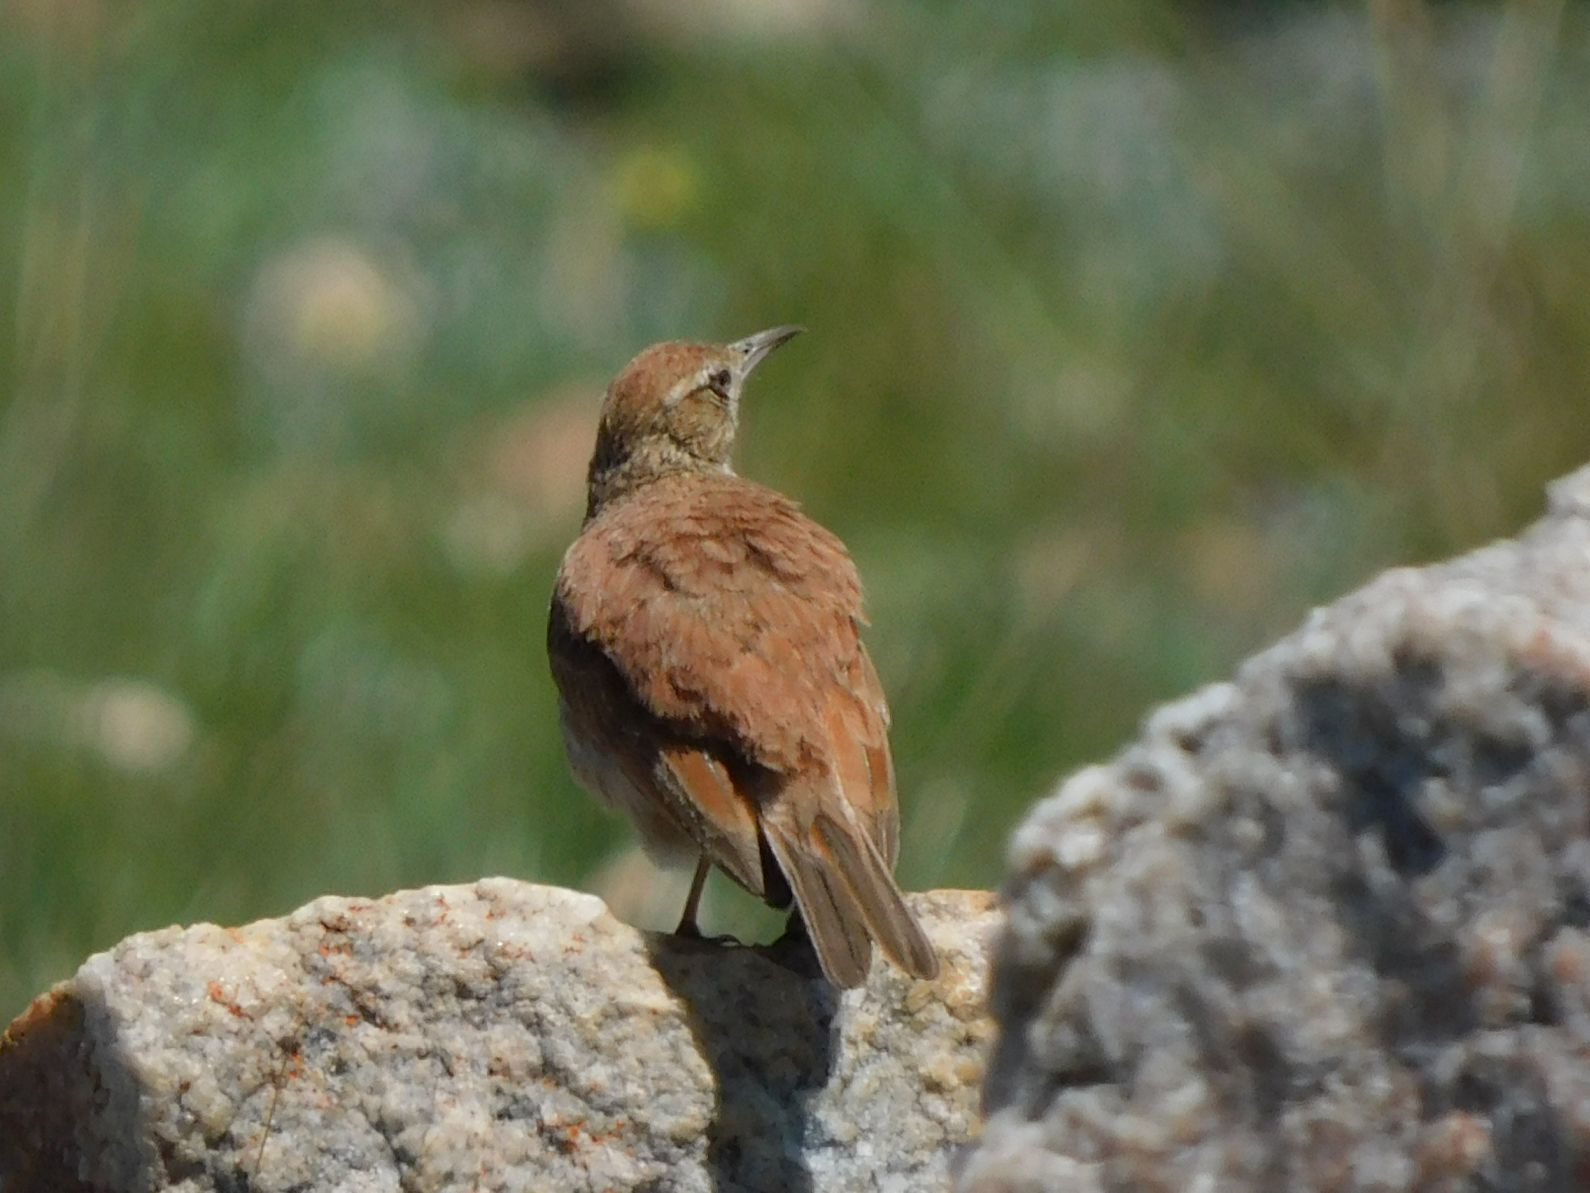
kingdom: Animalia
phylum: Chordata
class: Aves
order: Passeriformes
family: Alaudidae
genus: Certhilauda
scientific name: Certhilauda semitorquata
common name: Eastern long-billed lark
